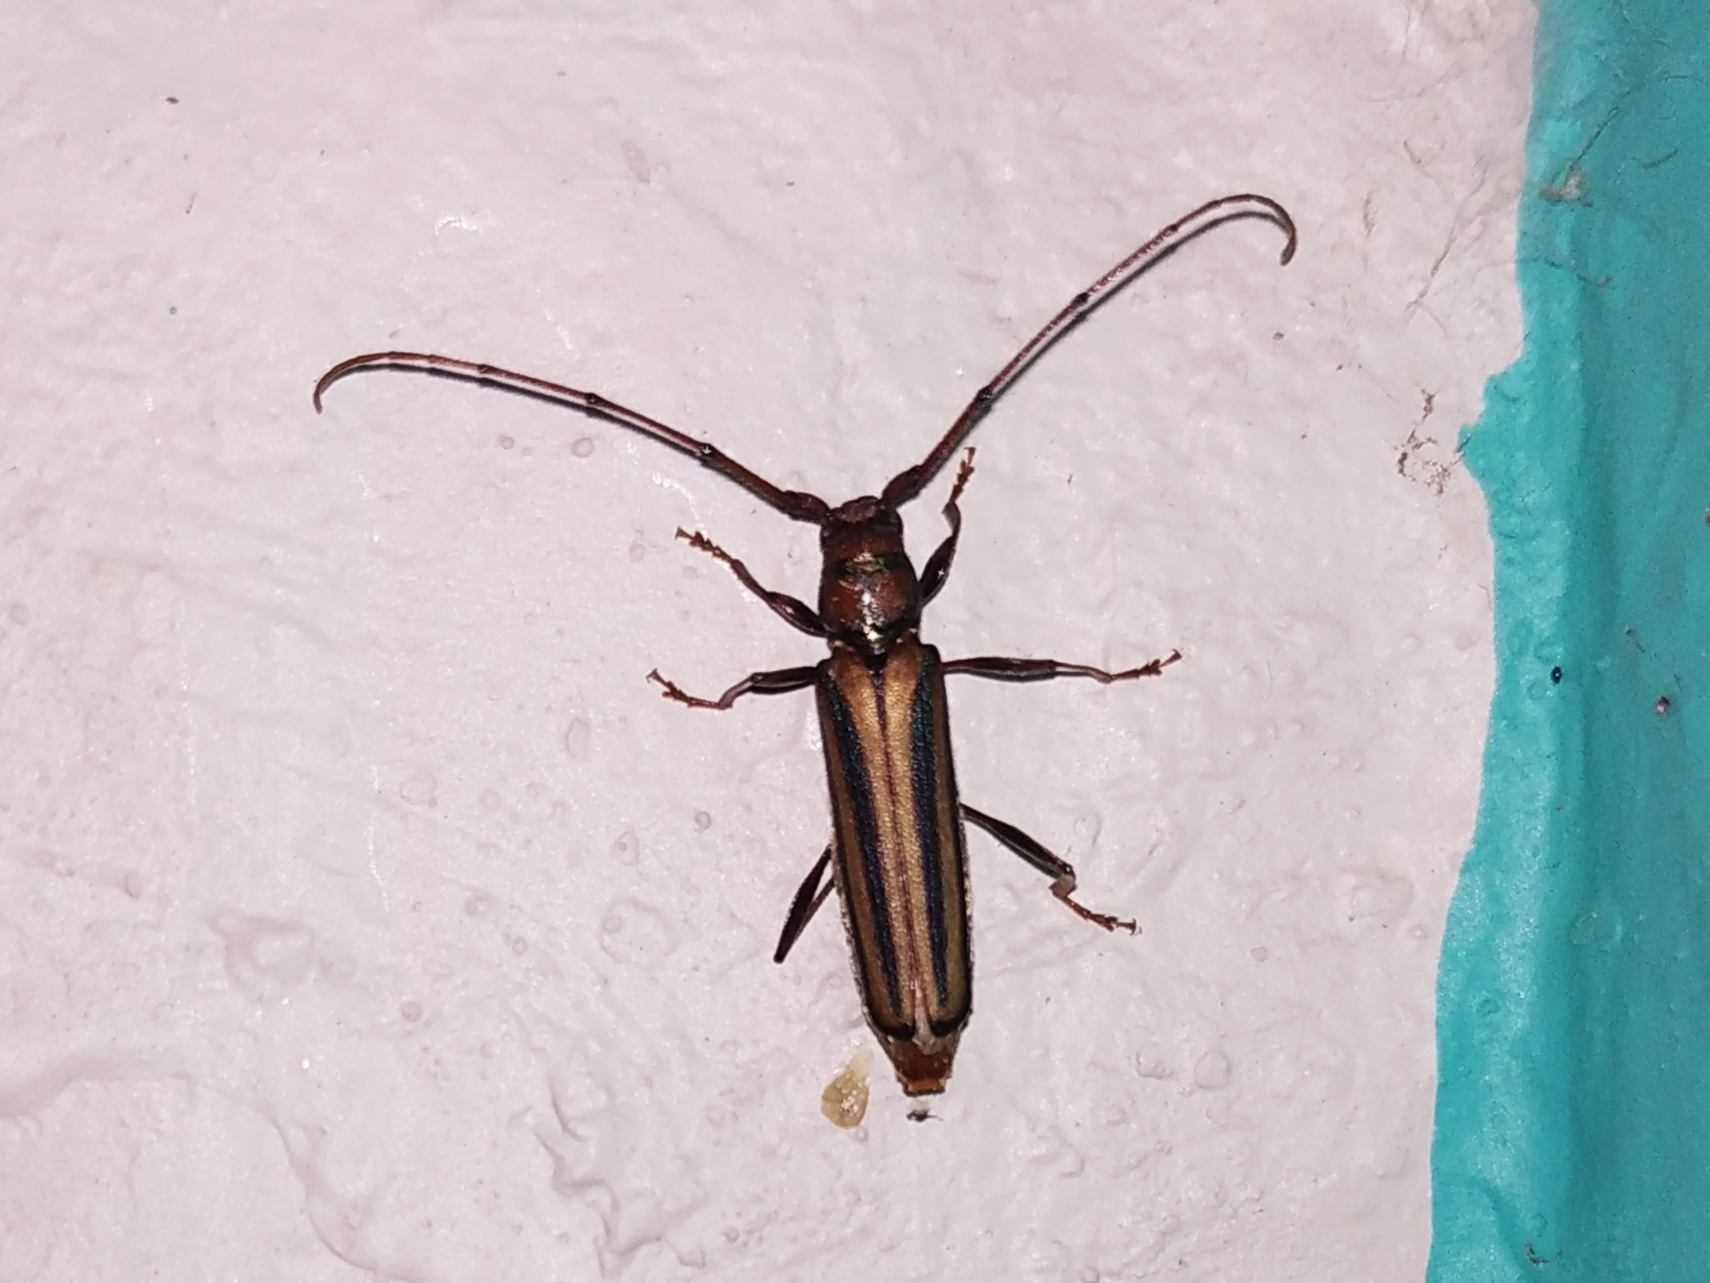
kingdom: Animalia
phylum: Arthropoda
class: Insecta
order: Coleoptera
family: Cerambycidae
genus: Xystrocera
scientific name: Xystrocera globosa
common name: Peach-tree longhorn
